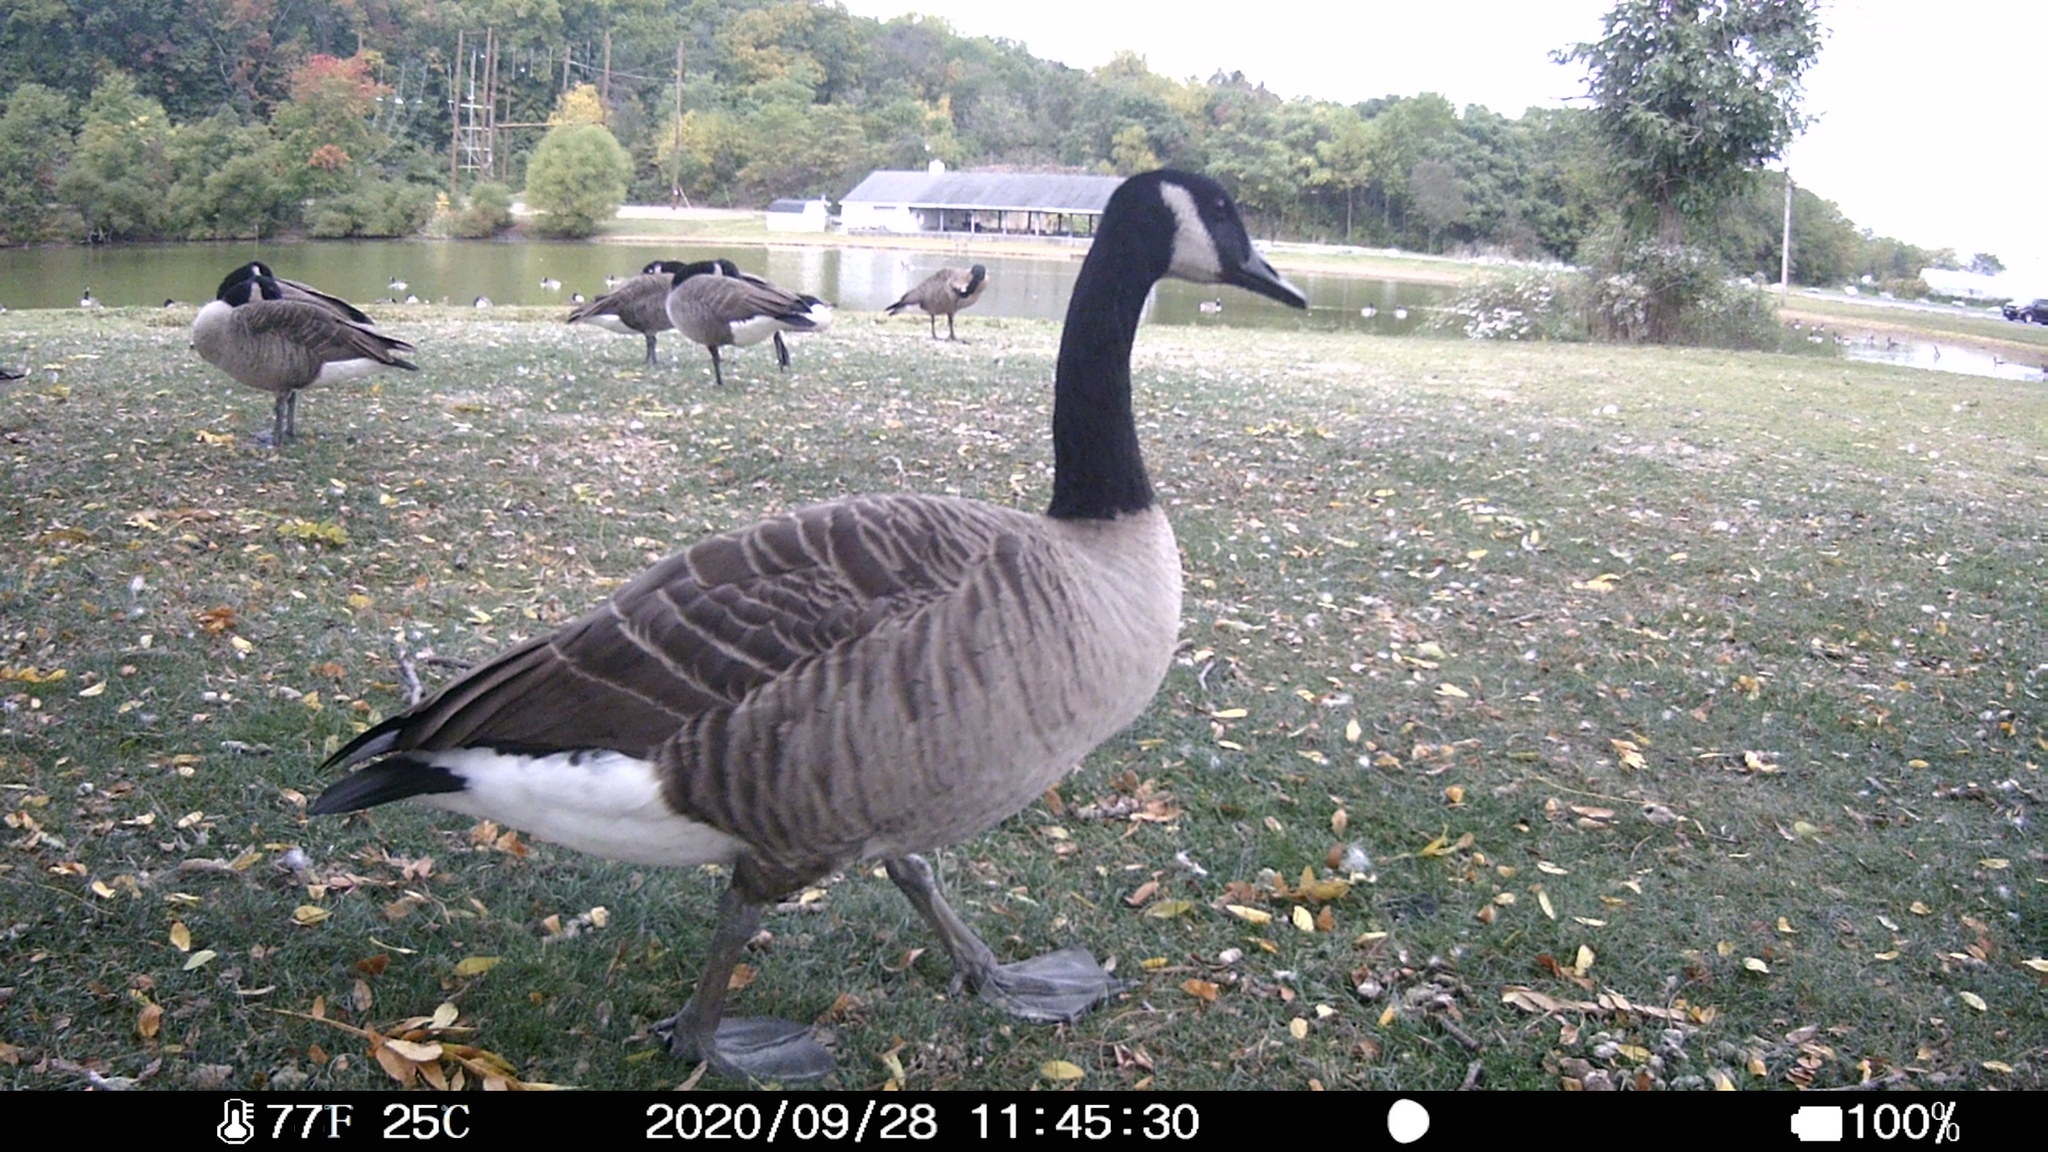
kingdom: Animalia
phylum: Chordata
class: Aves
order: Anseriformes
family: Anatidae
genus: Branta
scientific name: Branta canadensis
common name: Canada goose
